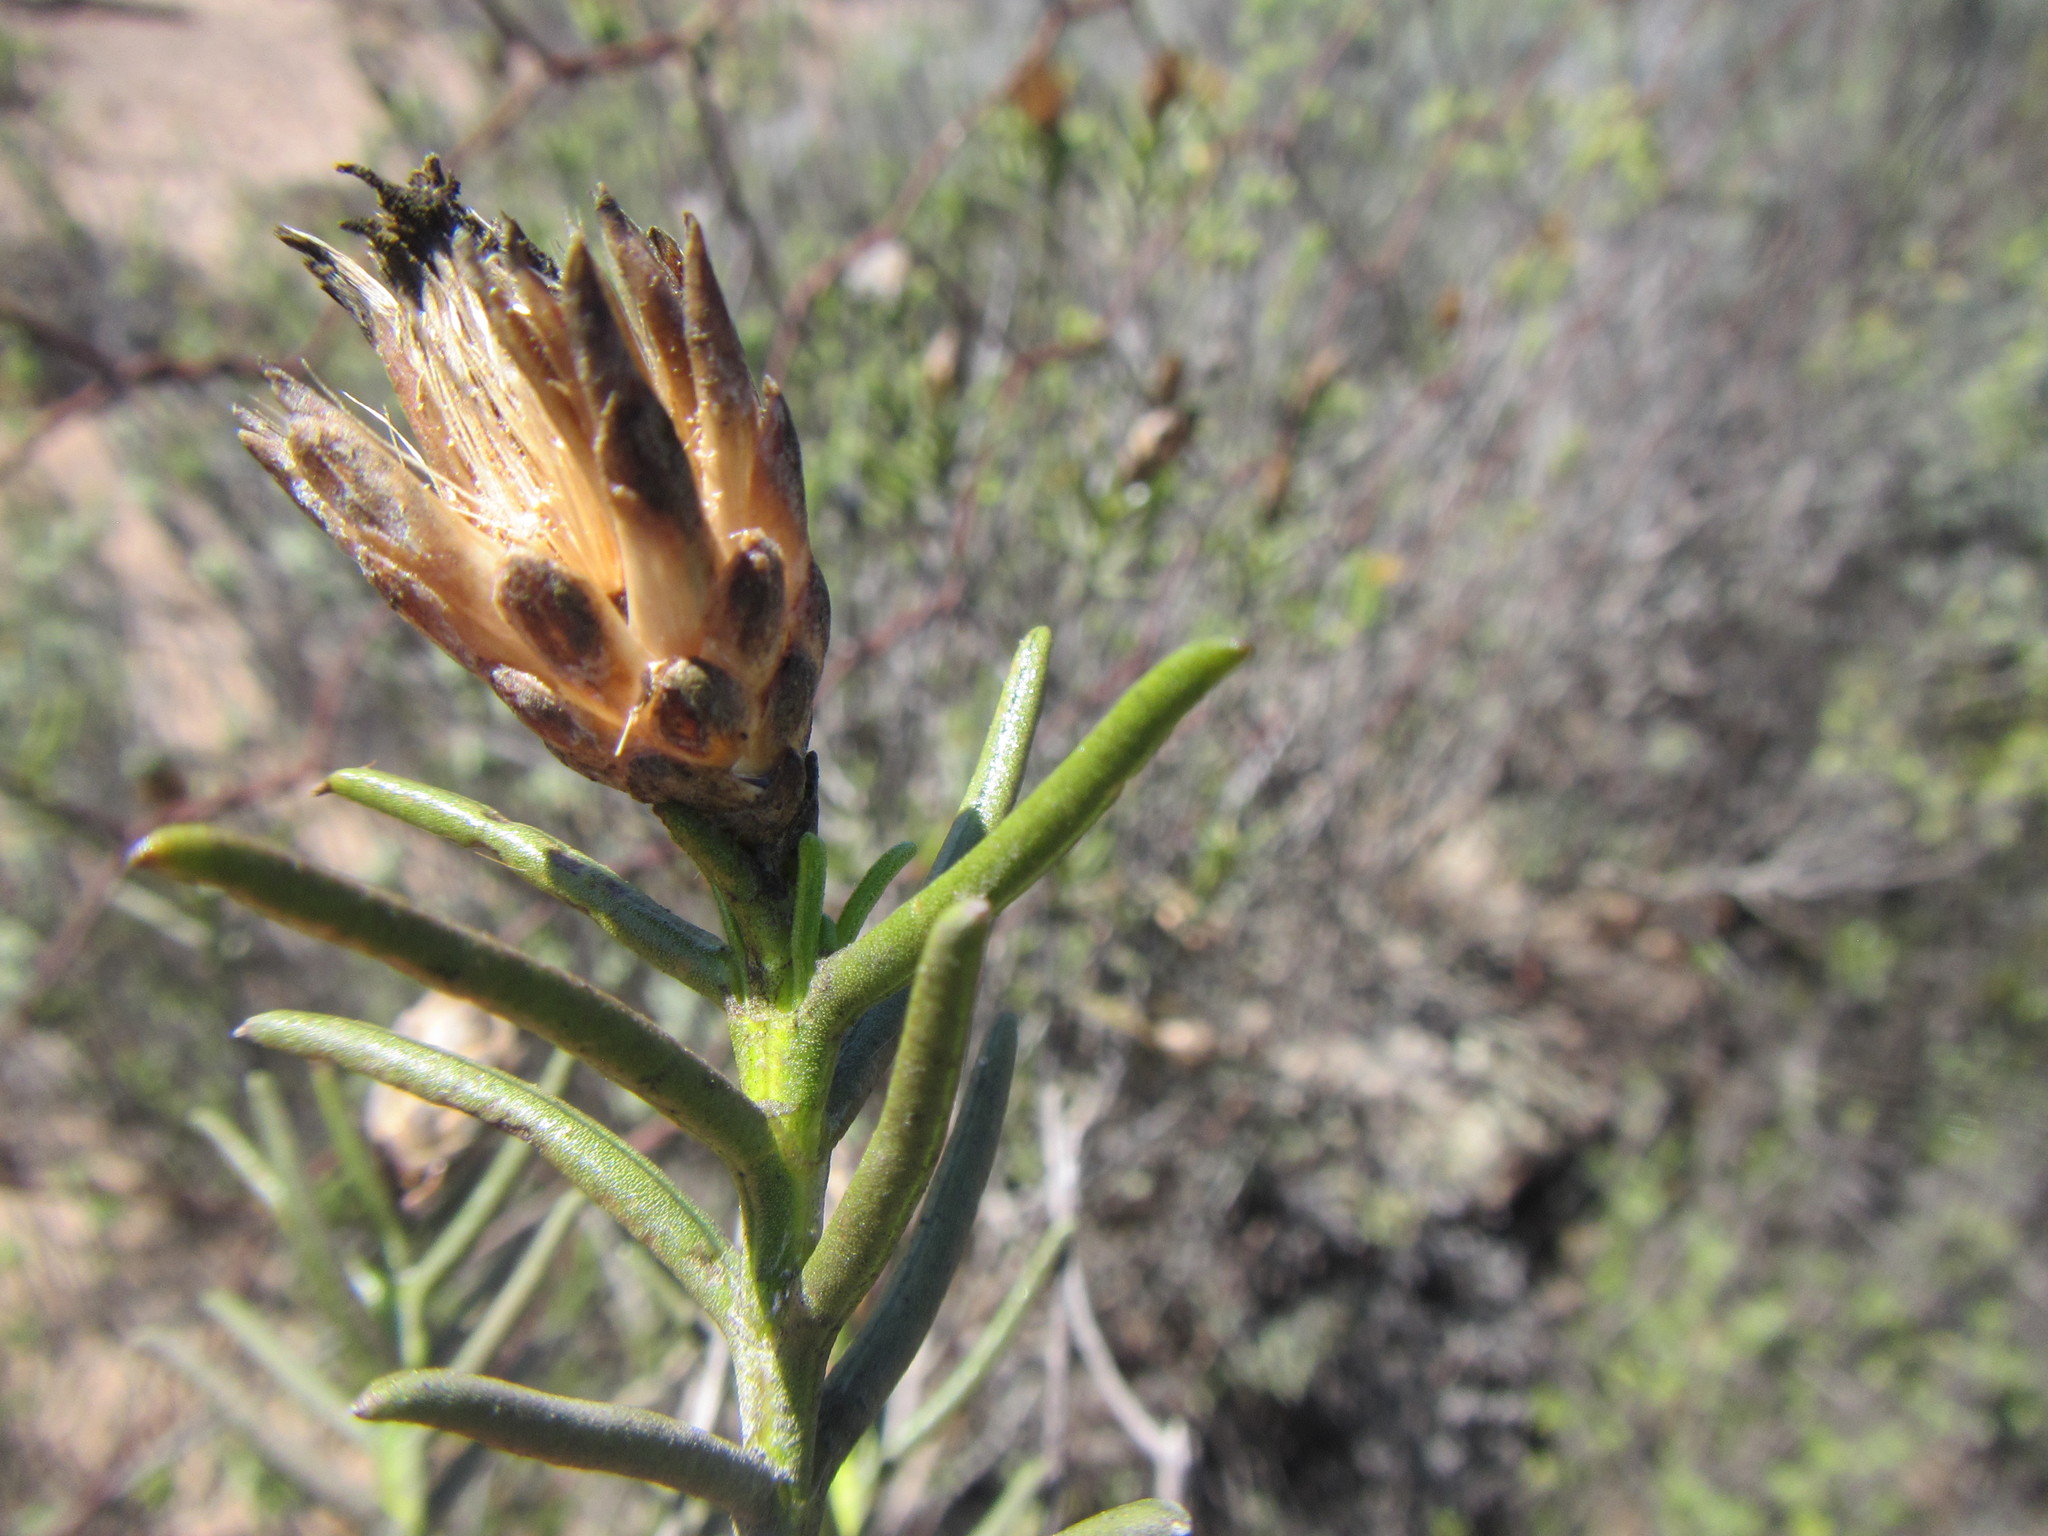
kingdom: Plantae
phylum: Tracheophyta
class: Magnoliopsida
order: Asterales
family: Asteraceae
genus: Pteronia
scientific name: Pteronia flexicaulis
